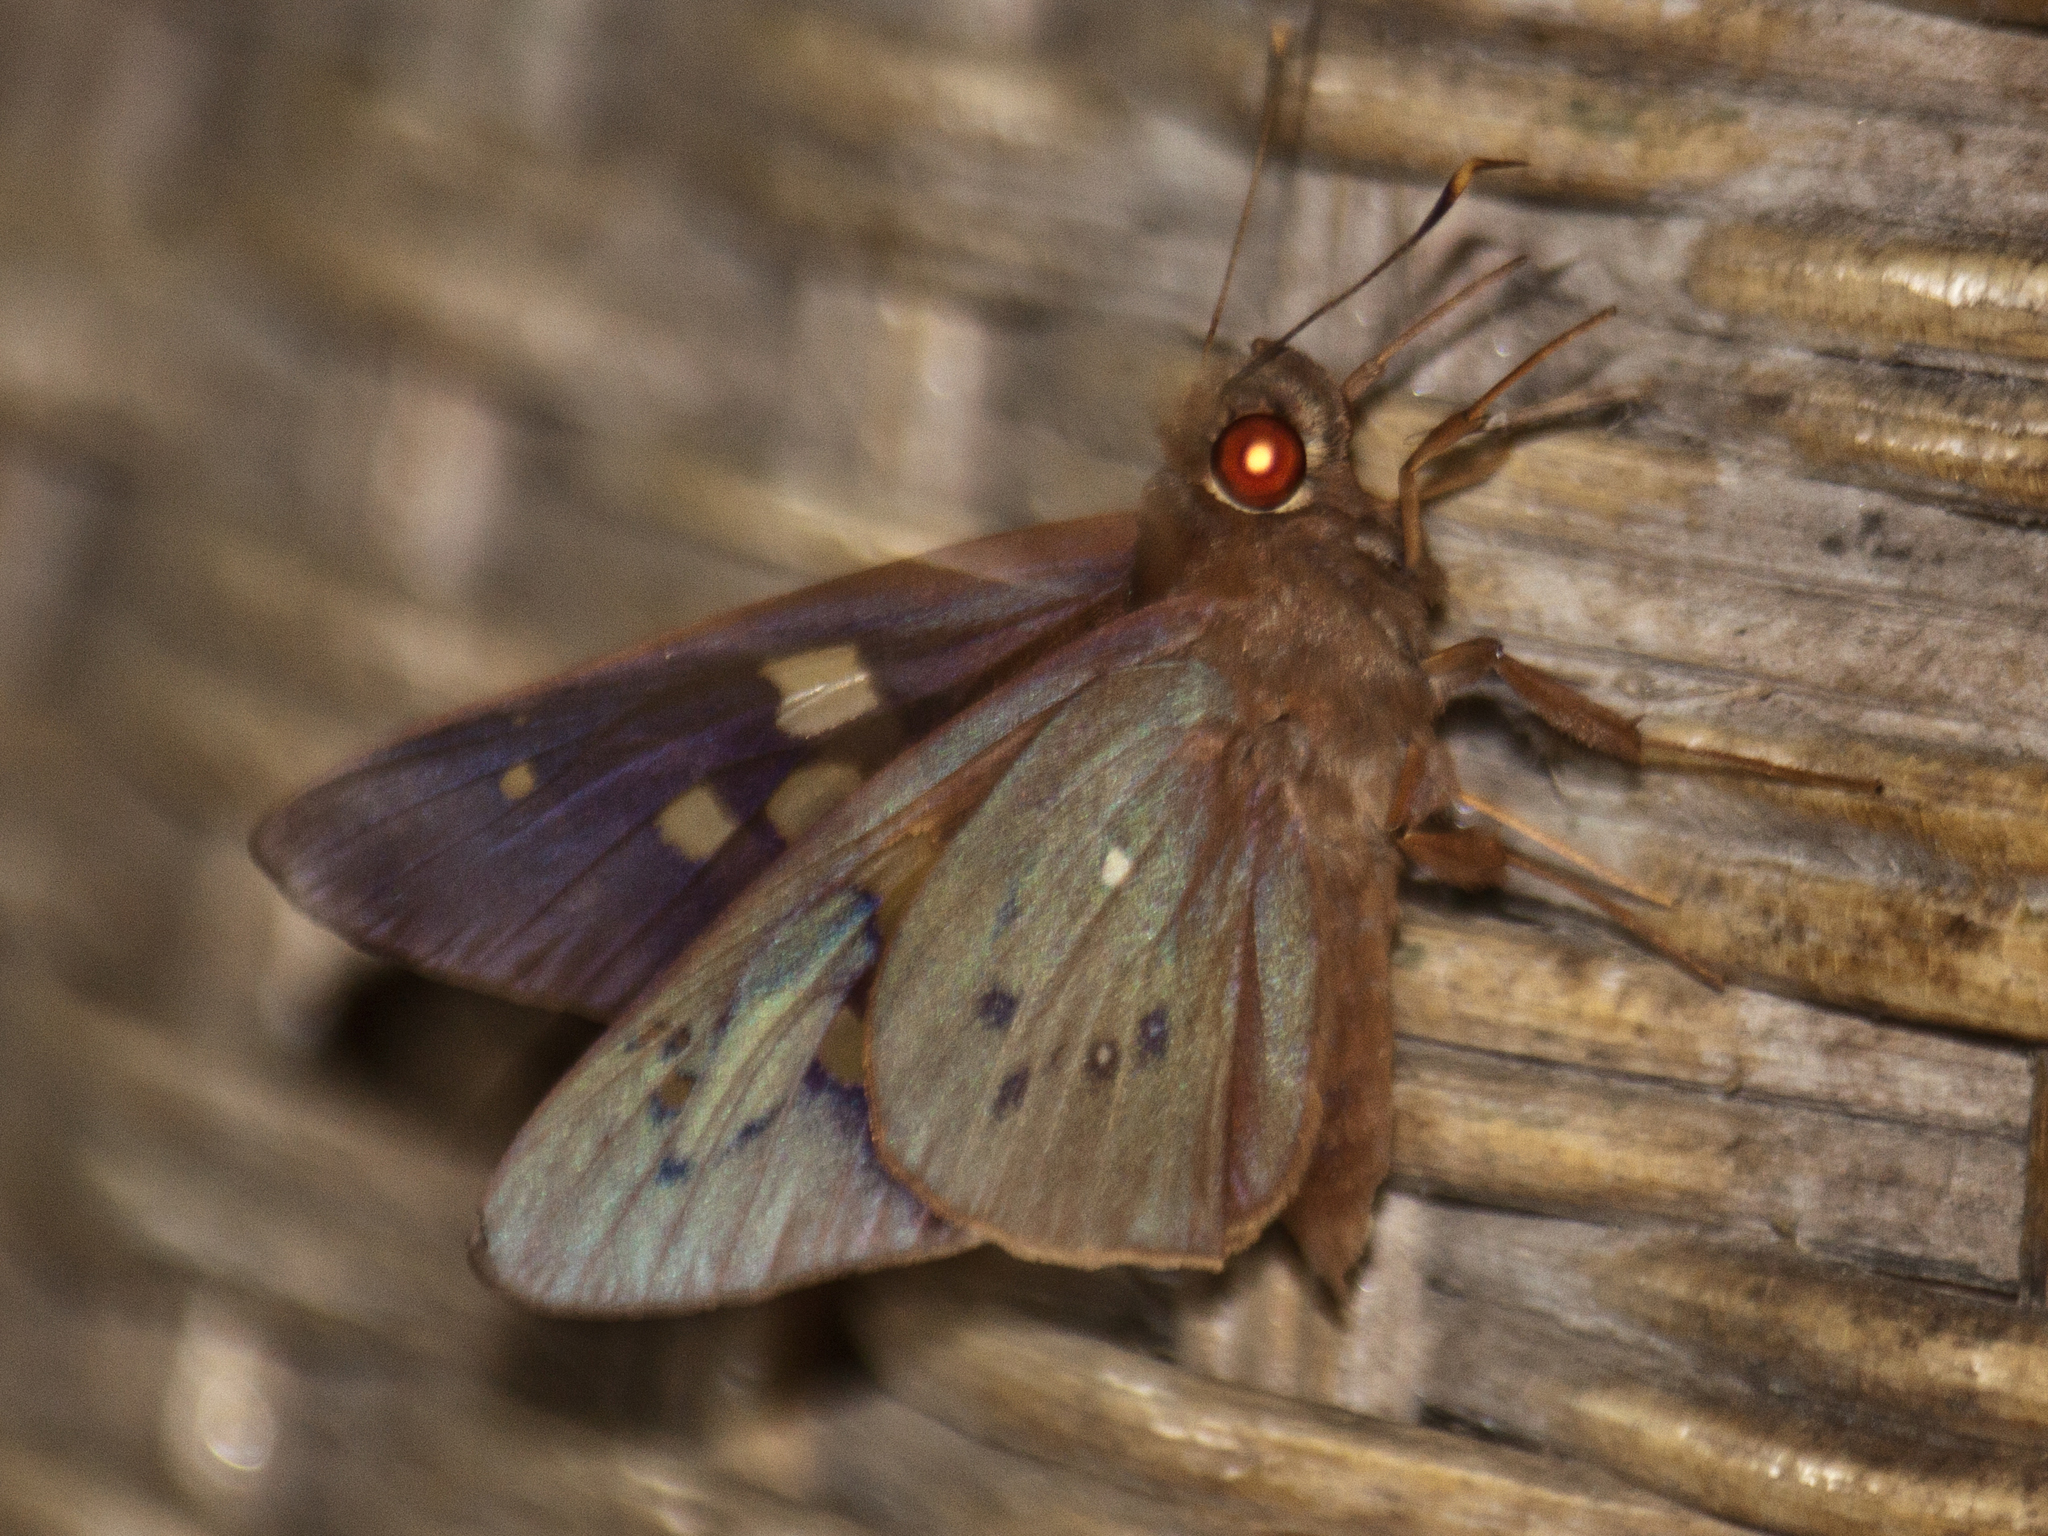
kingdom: Animalia
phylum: Arthropoda
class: Insecta
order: Lepidoptera
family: Hesperiidae
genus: Hidari
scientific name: Hidari irava
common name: Coconut skipper
